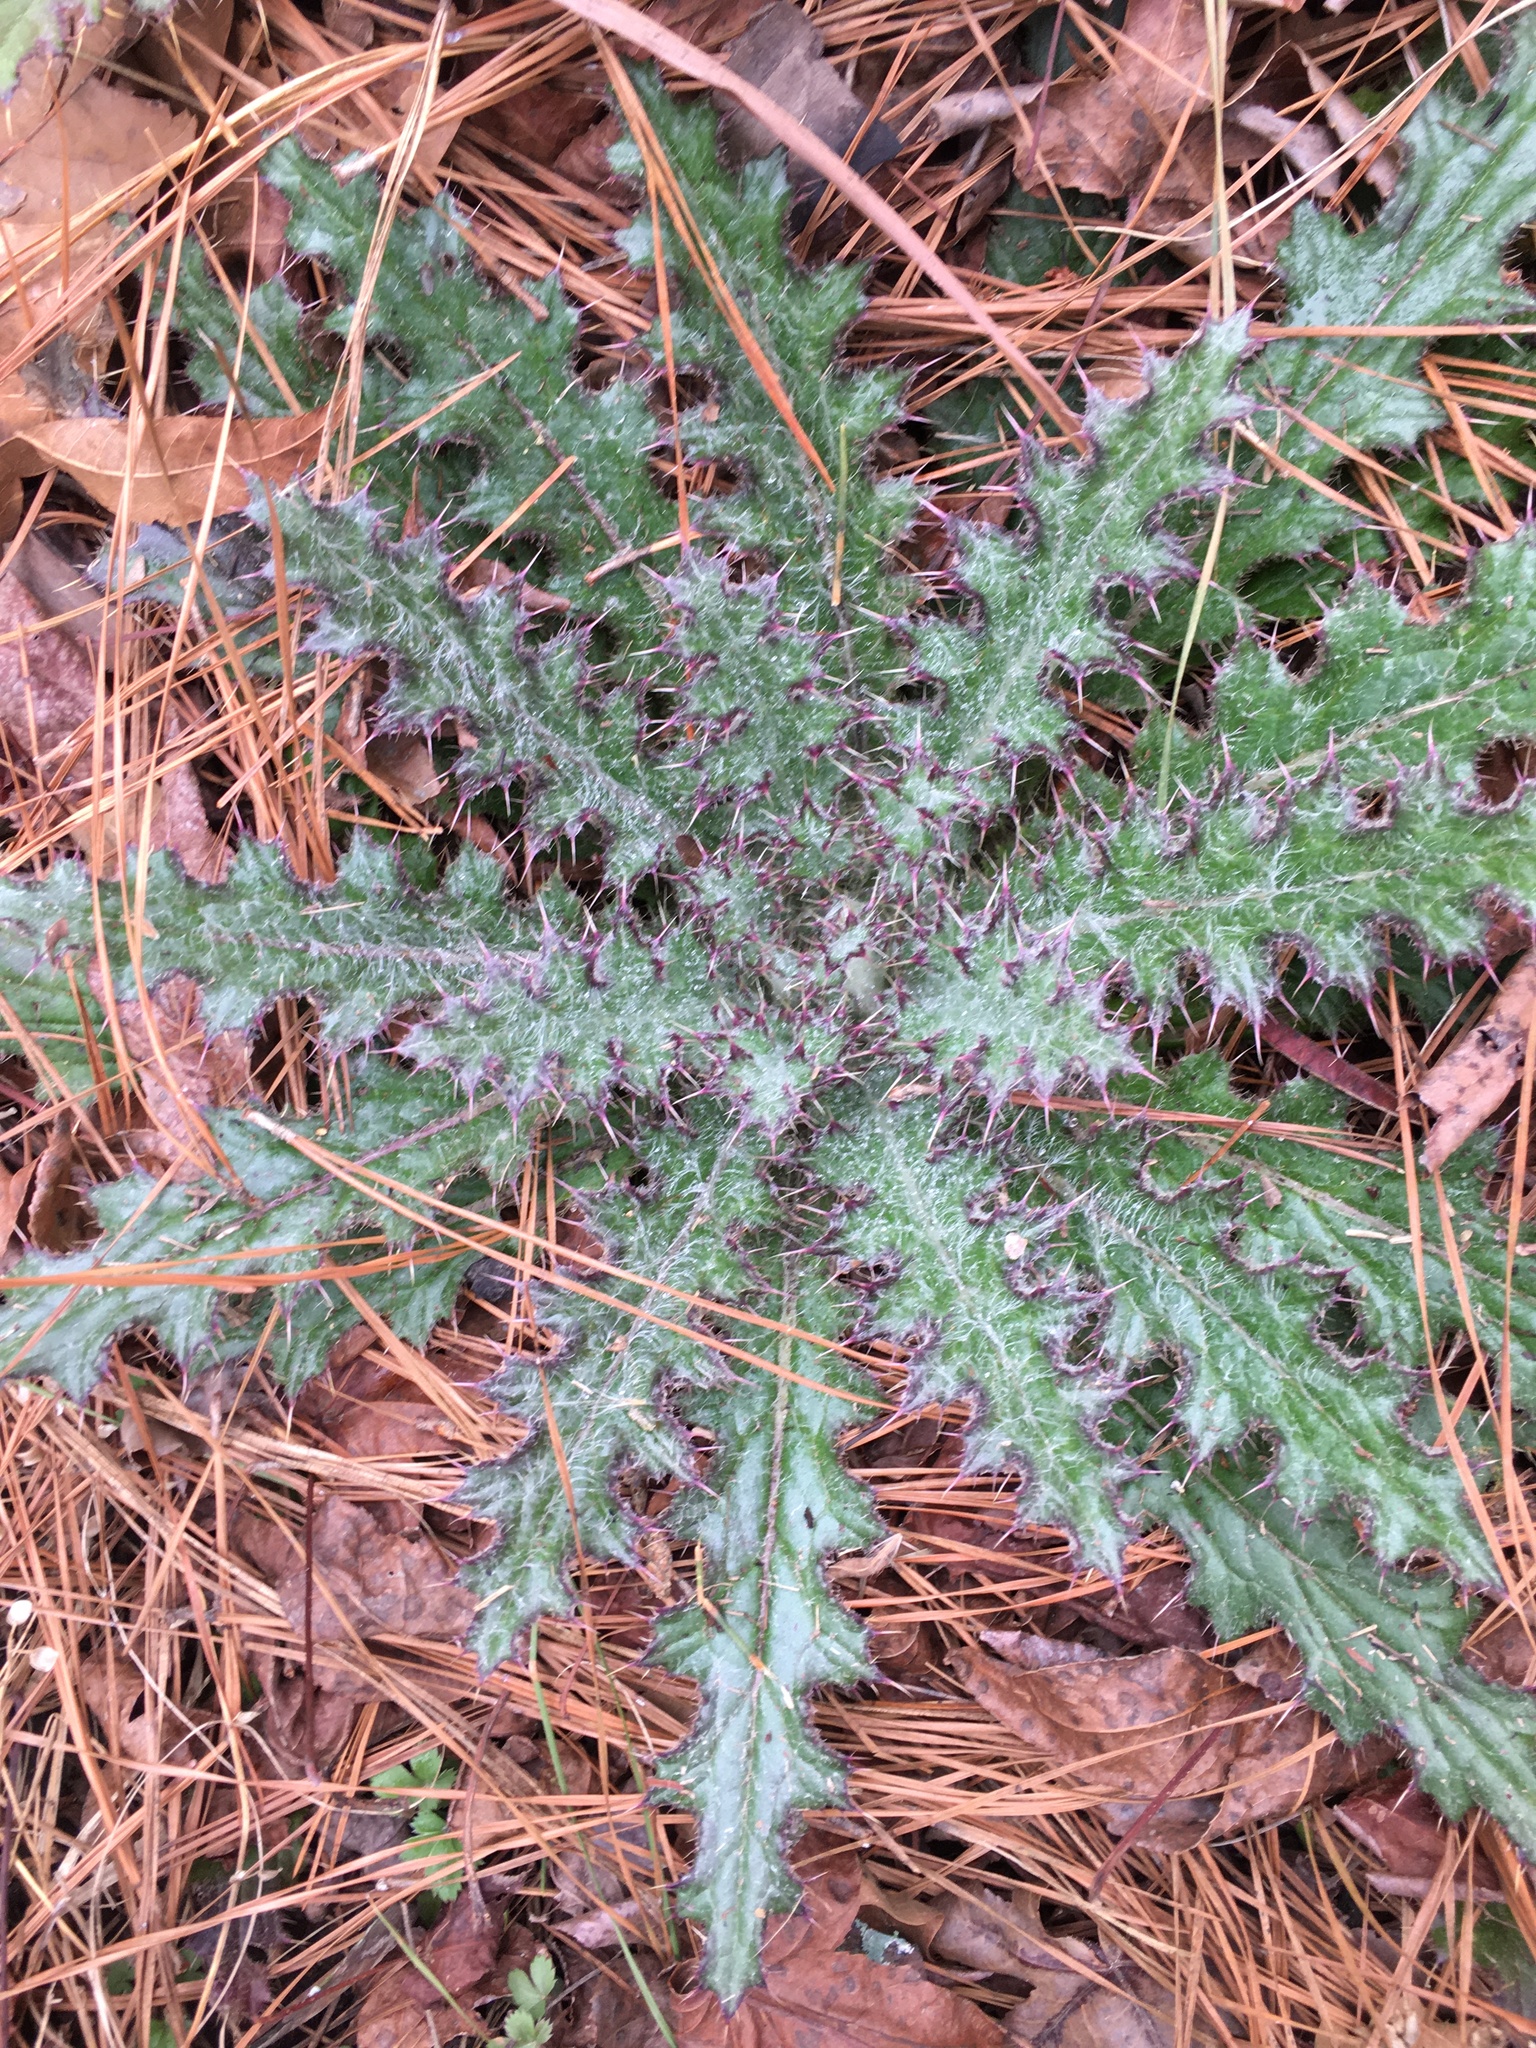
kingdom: Plantae
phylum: Tracheophyta
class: Magnoliopsida
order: Asterales
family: Asteraceae
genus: Cirsium
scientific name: Cirsium horridulum
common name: Bristly thistle
